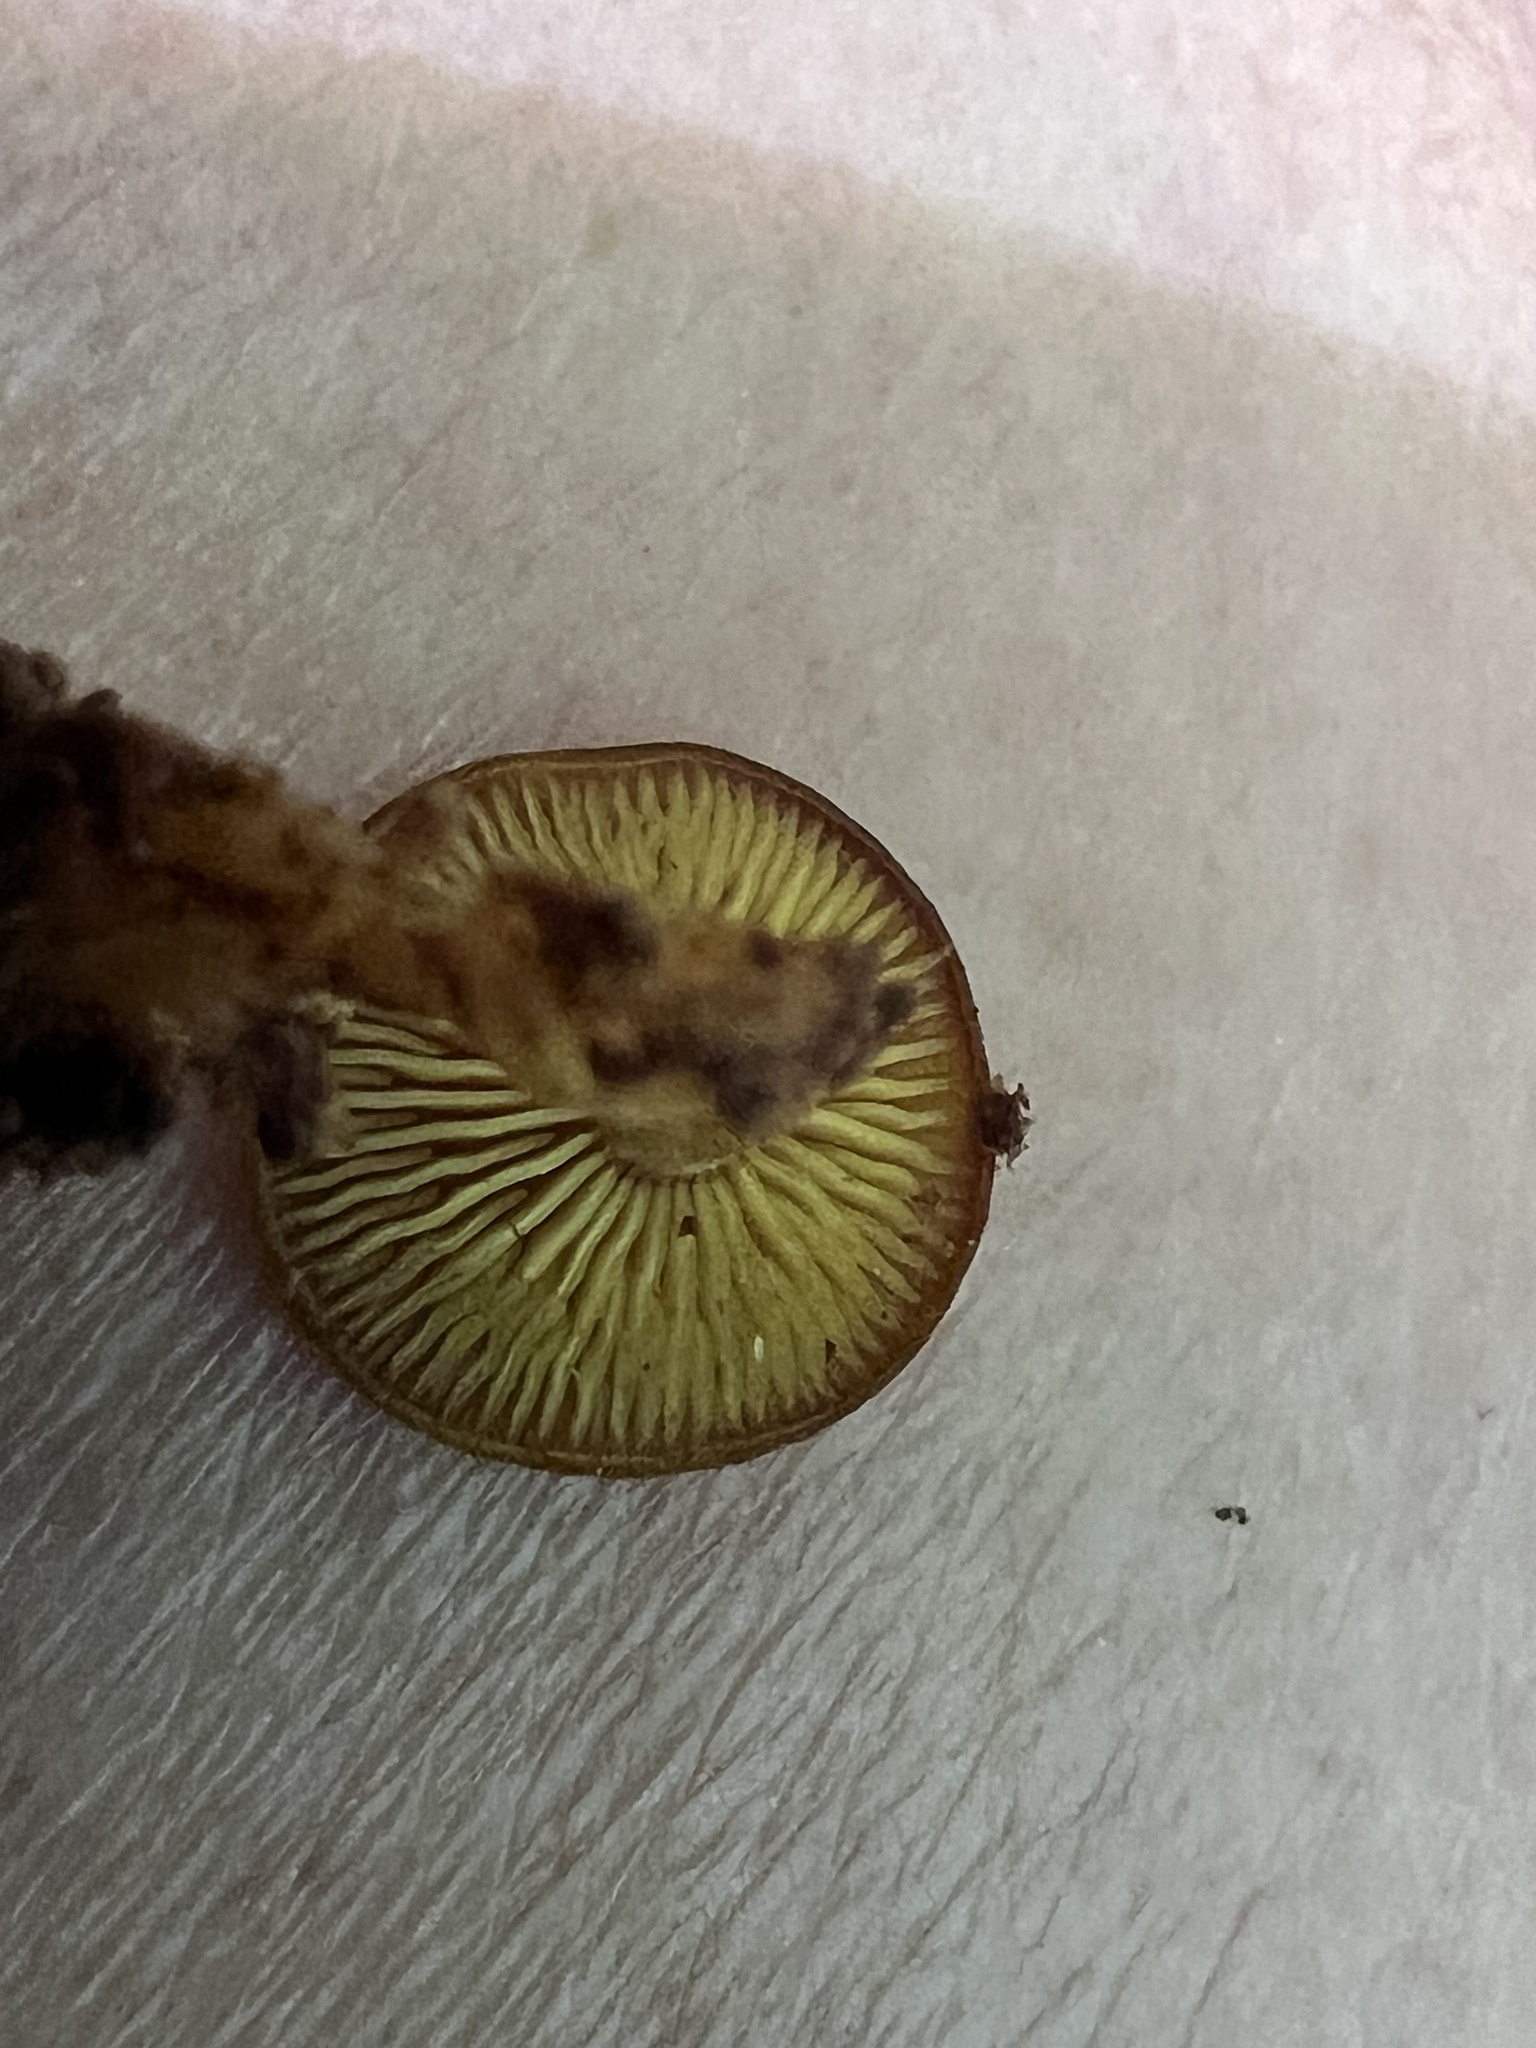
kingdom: Fungi
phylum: Basidiomycota
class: Agaricomycetes
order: Agaricales
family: Callistosporiaceae
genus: Callistosporium
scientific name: Callistosporium purpureomarginatum
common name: Purple-edged lute
